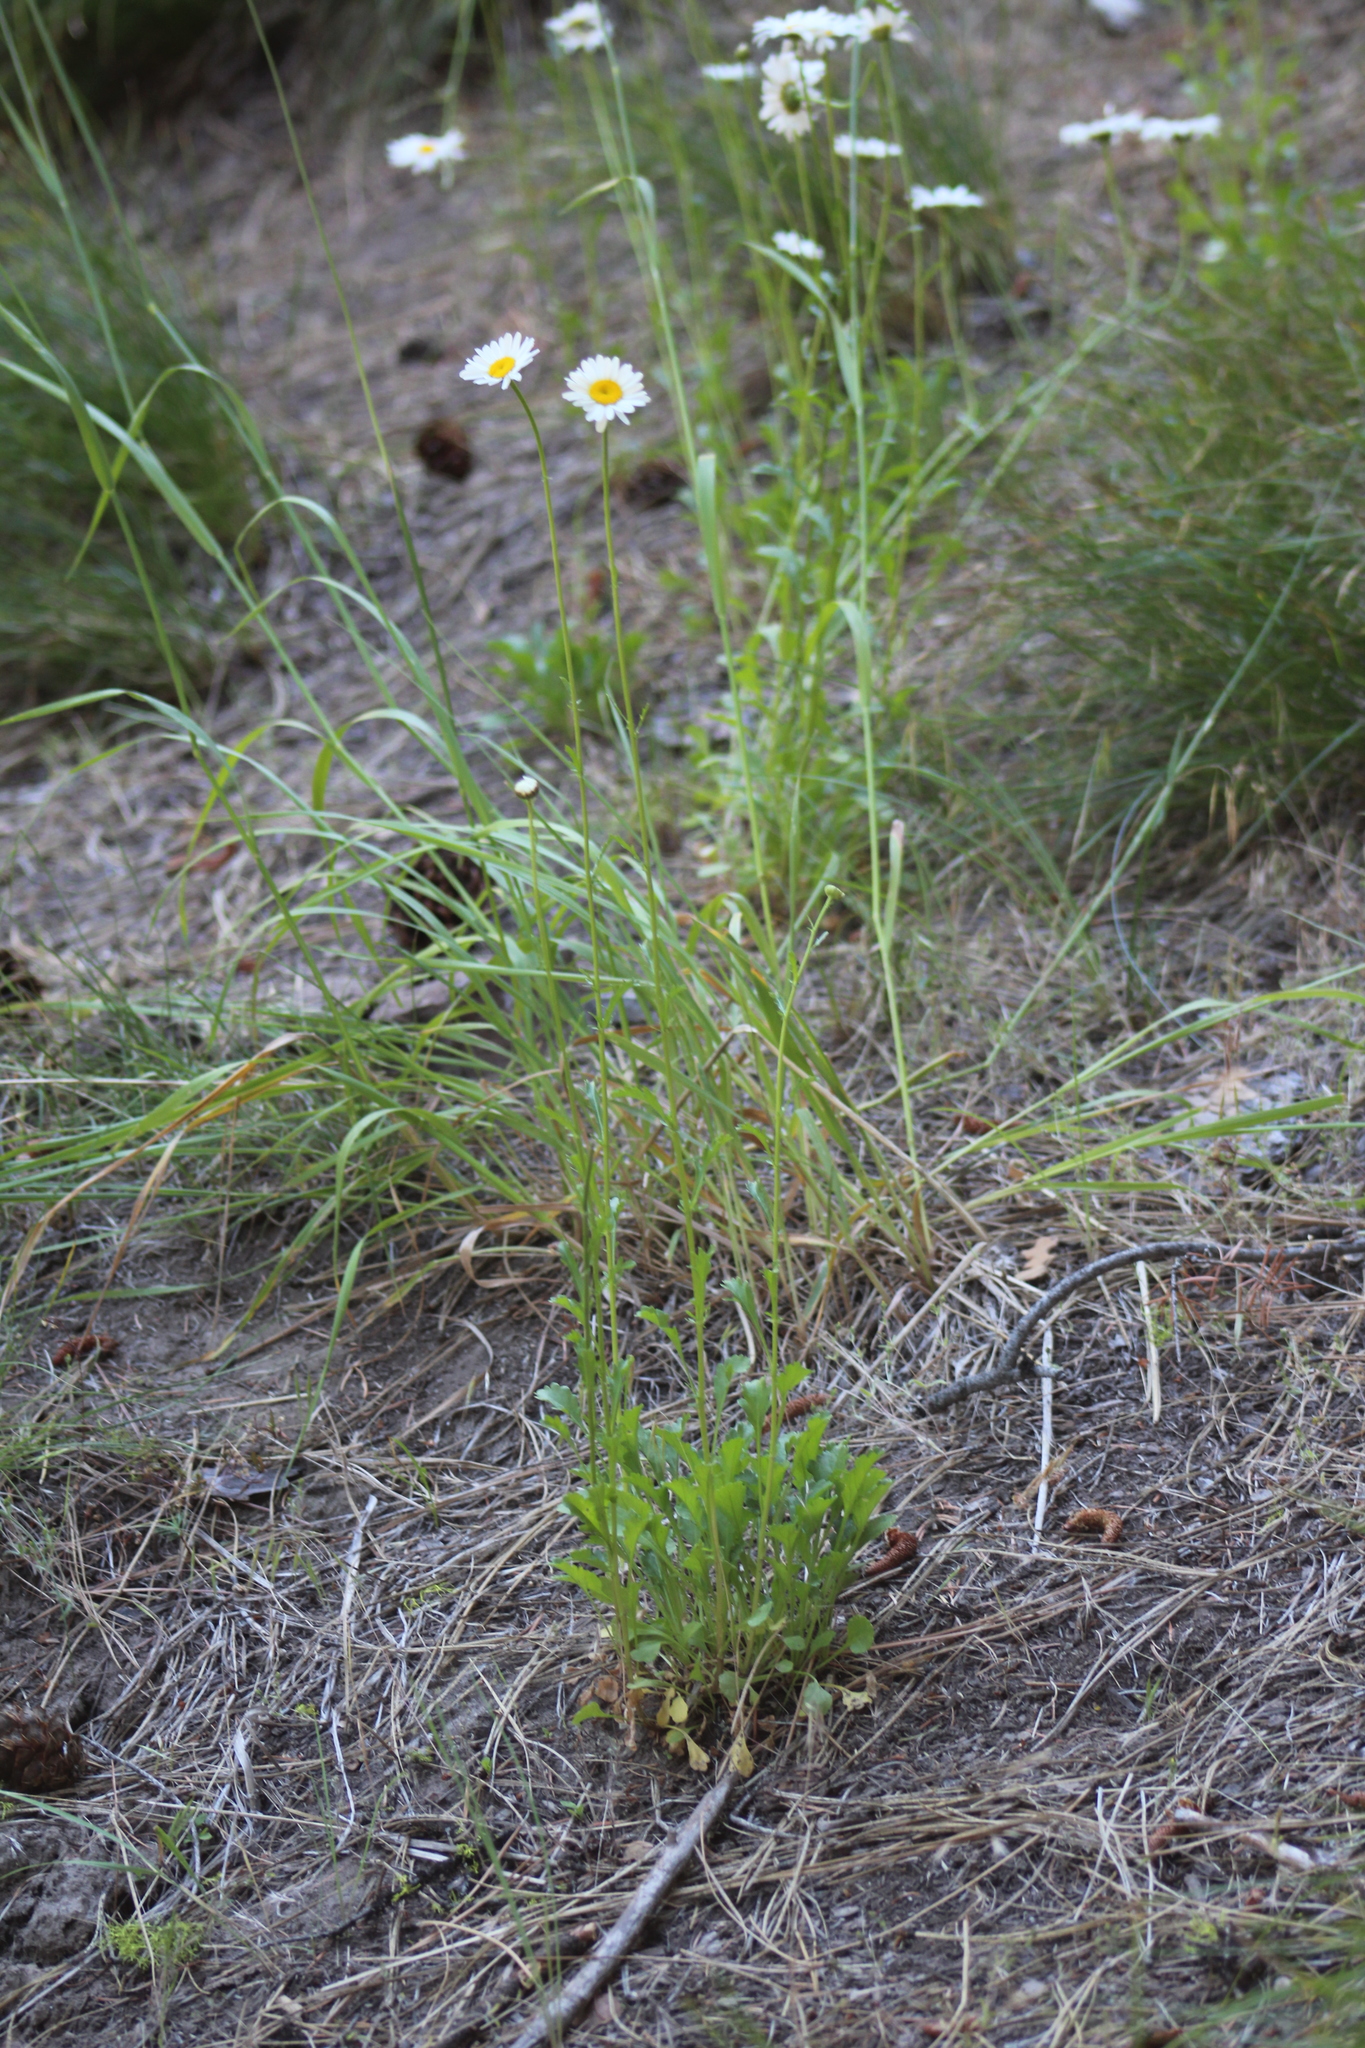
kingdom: Plantae
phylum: Tracheophyta
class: Magnoliopsida
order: Asterales
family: Asteraceae
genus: Leucanthemum
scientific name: Leucanthemum vulgare
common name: Oxeye daisy
